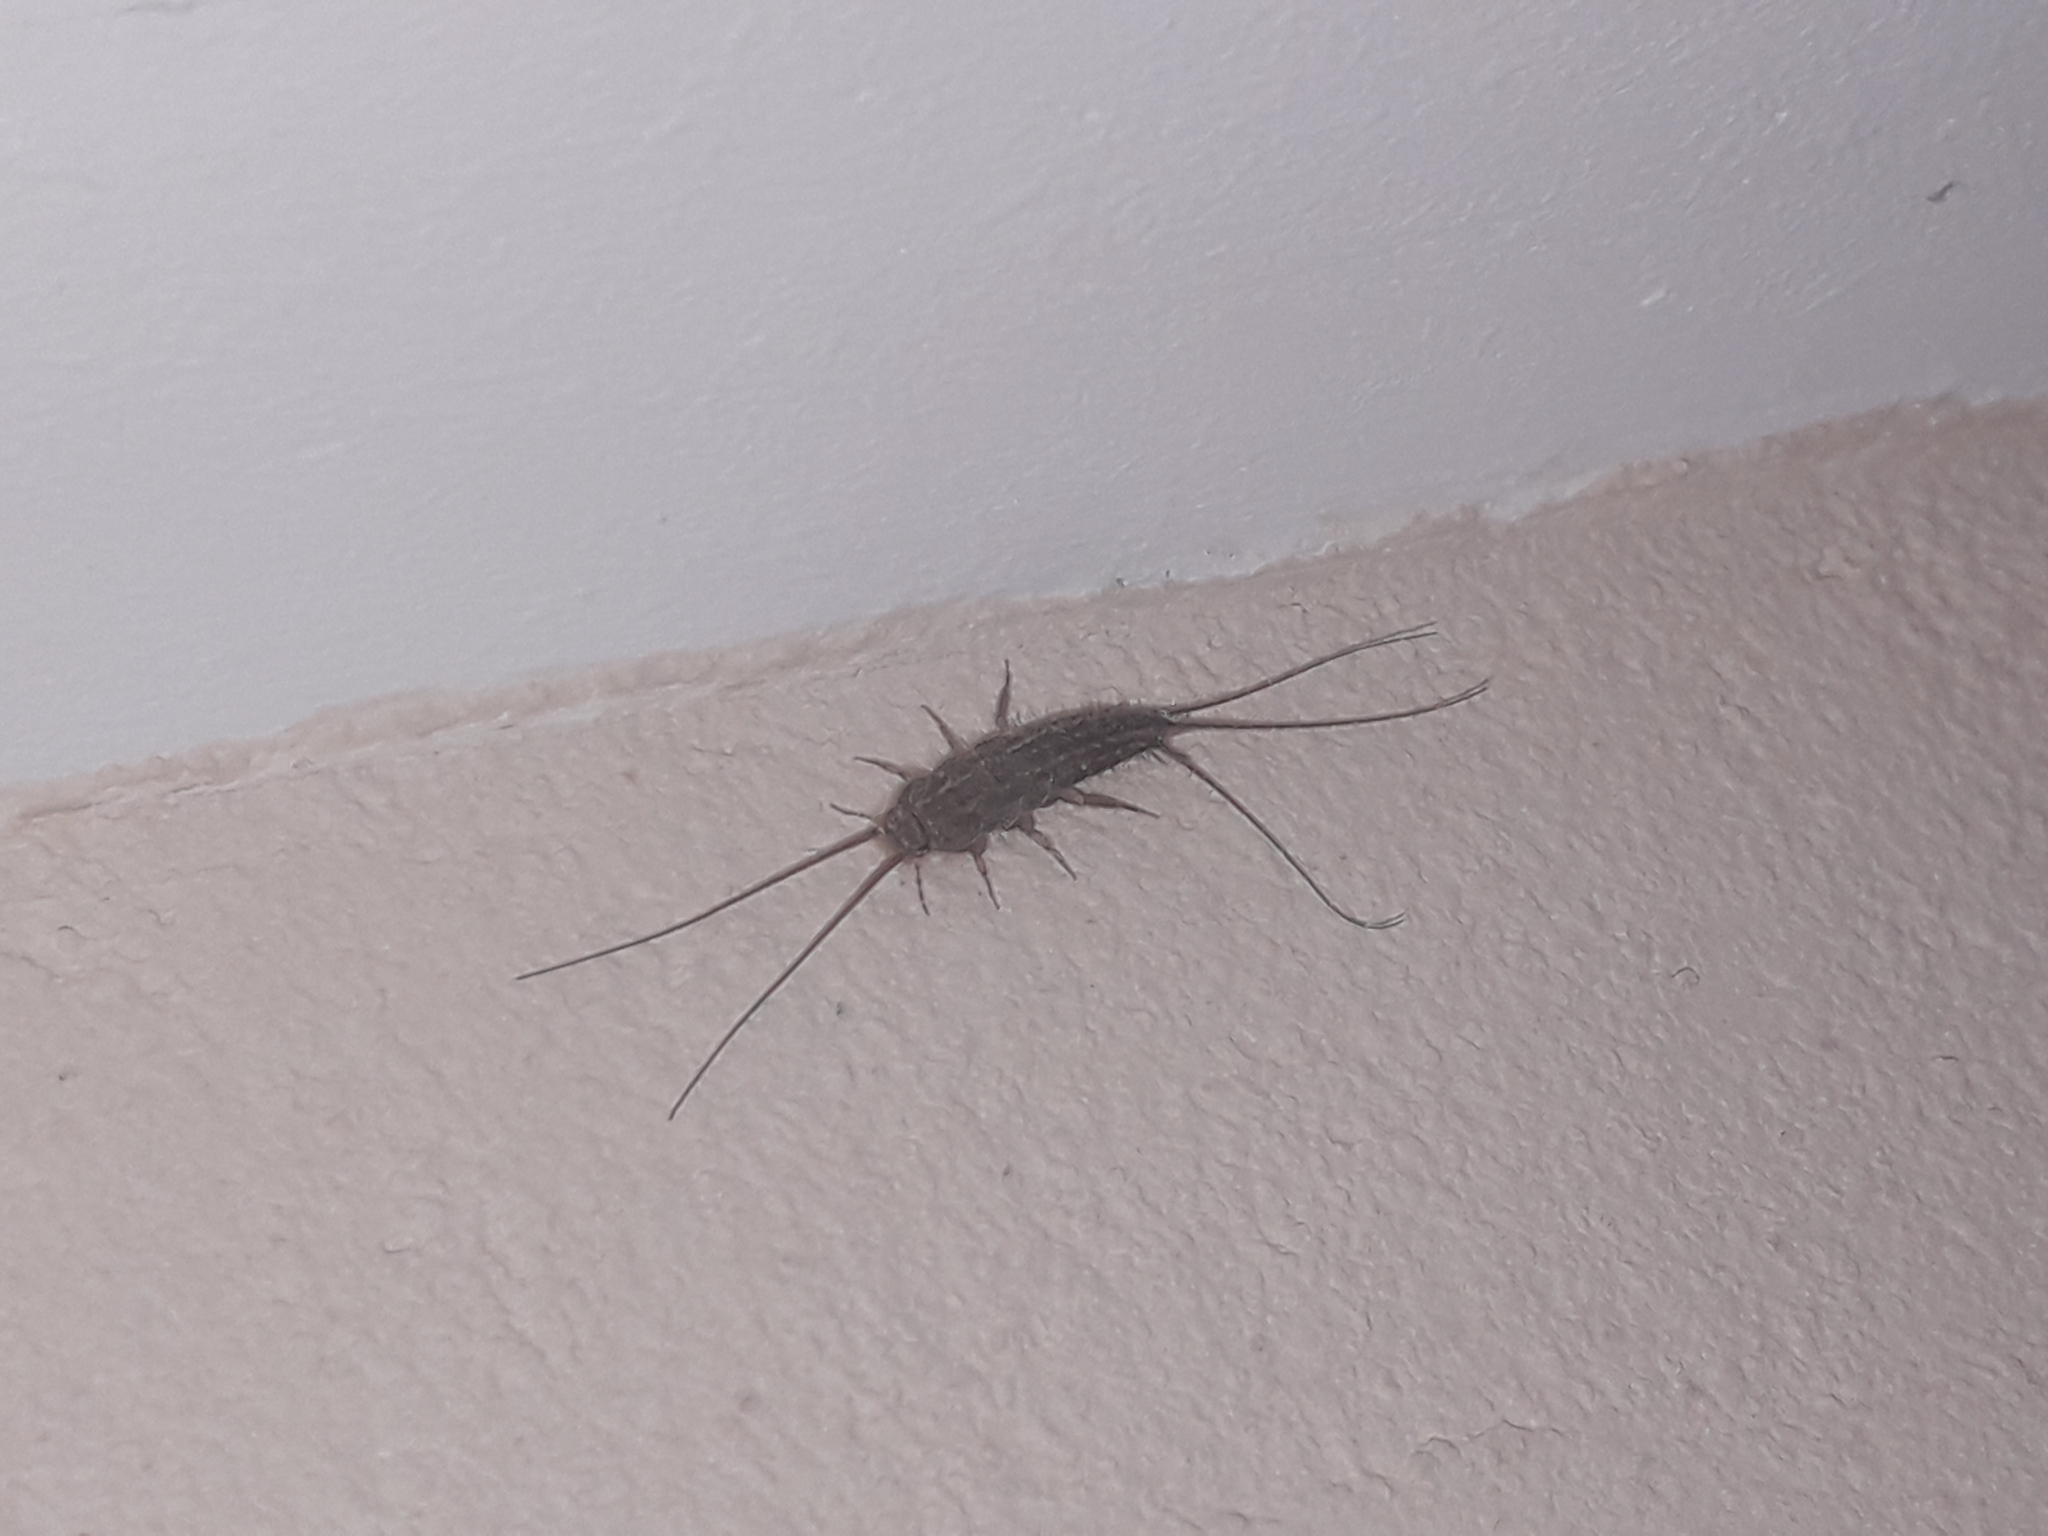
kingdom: Animalia
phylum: Arthropoda
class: Insecta
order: Zygentoma
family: Lepismatidae
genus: Ctenolepisma
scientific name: Ctenolepisma lineata
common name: Four-lined silverfish
